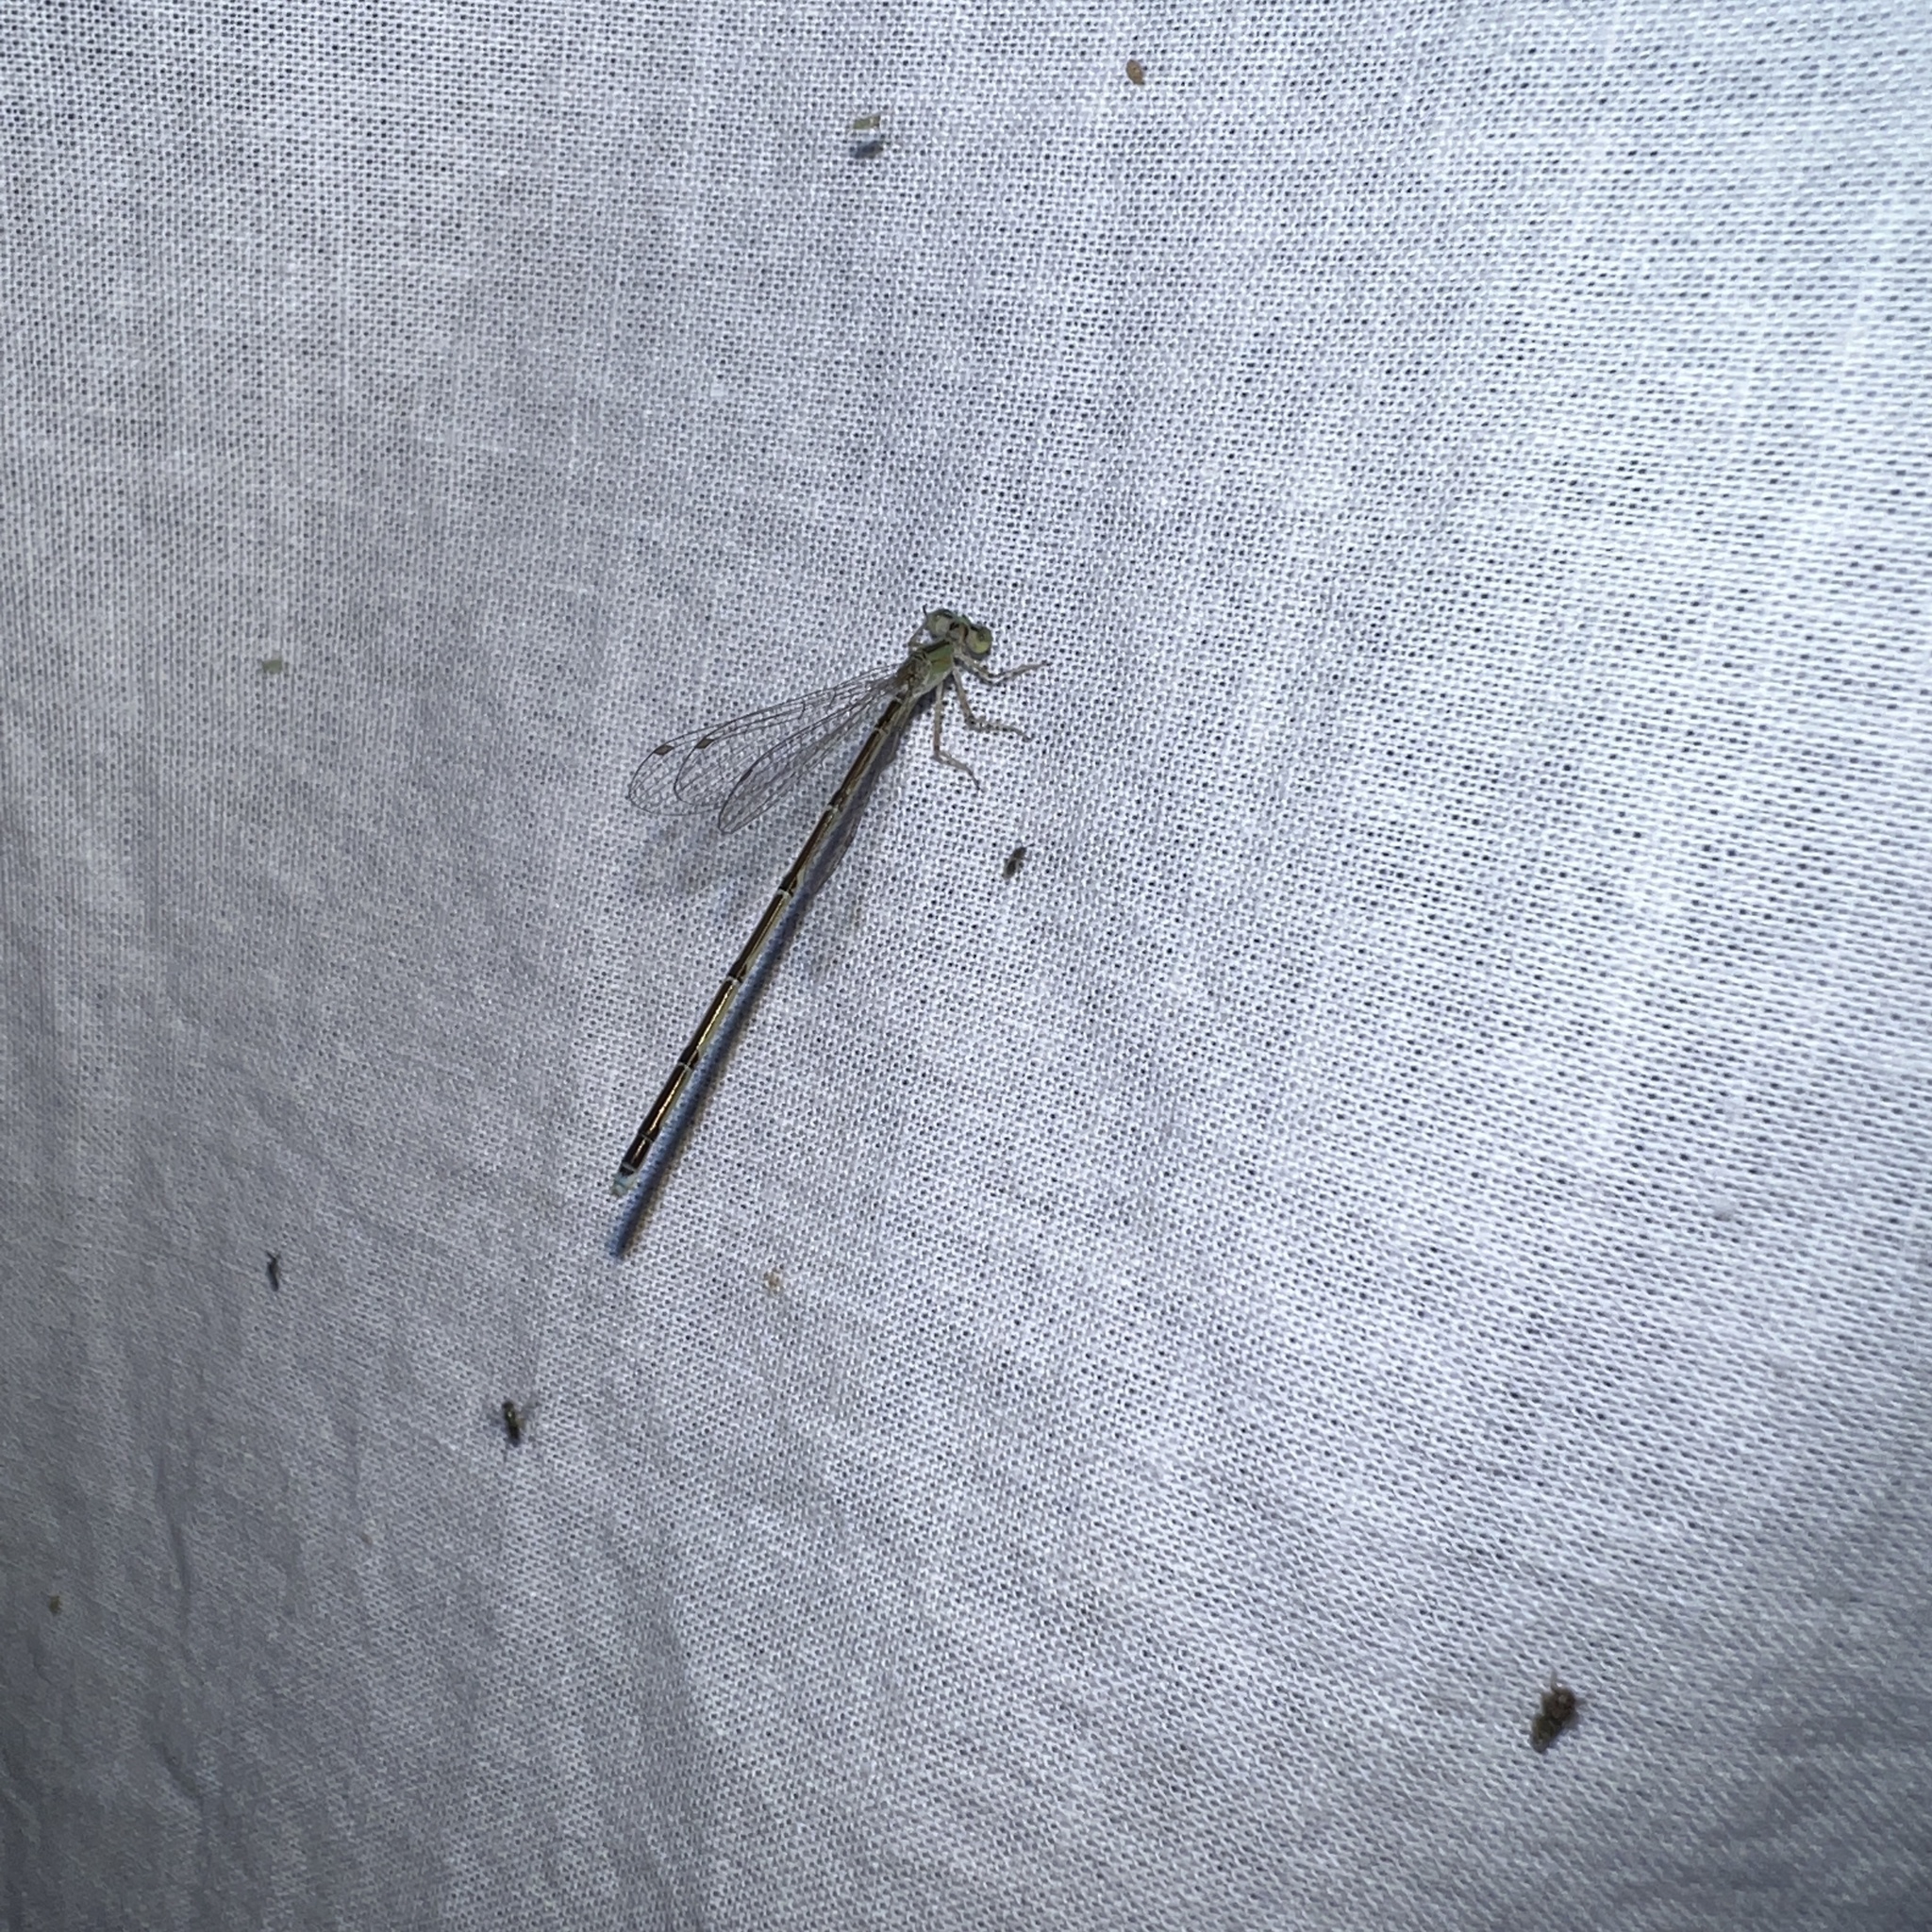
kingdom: Animalia
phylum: Arthropoda
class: Insecta
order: Odonata
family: Coenagrionidae
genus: Enallagma
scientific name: Enallagma vesperum
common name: Vesper bluet
